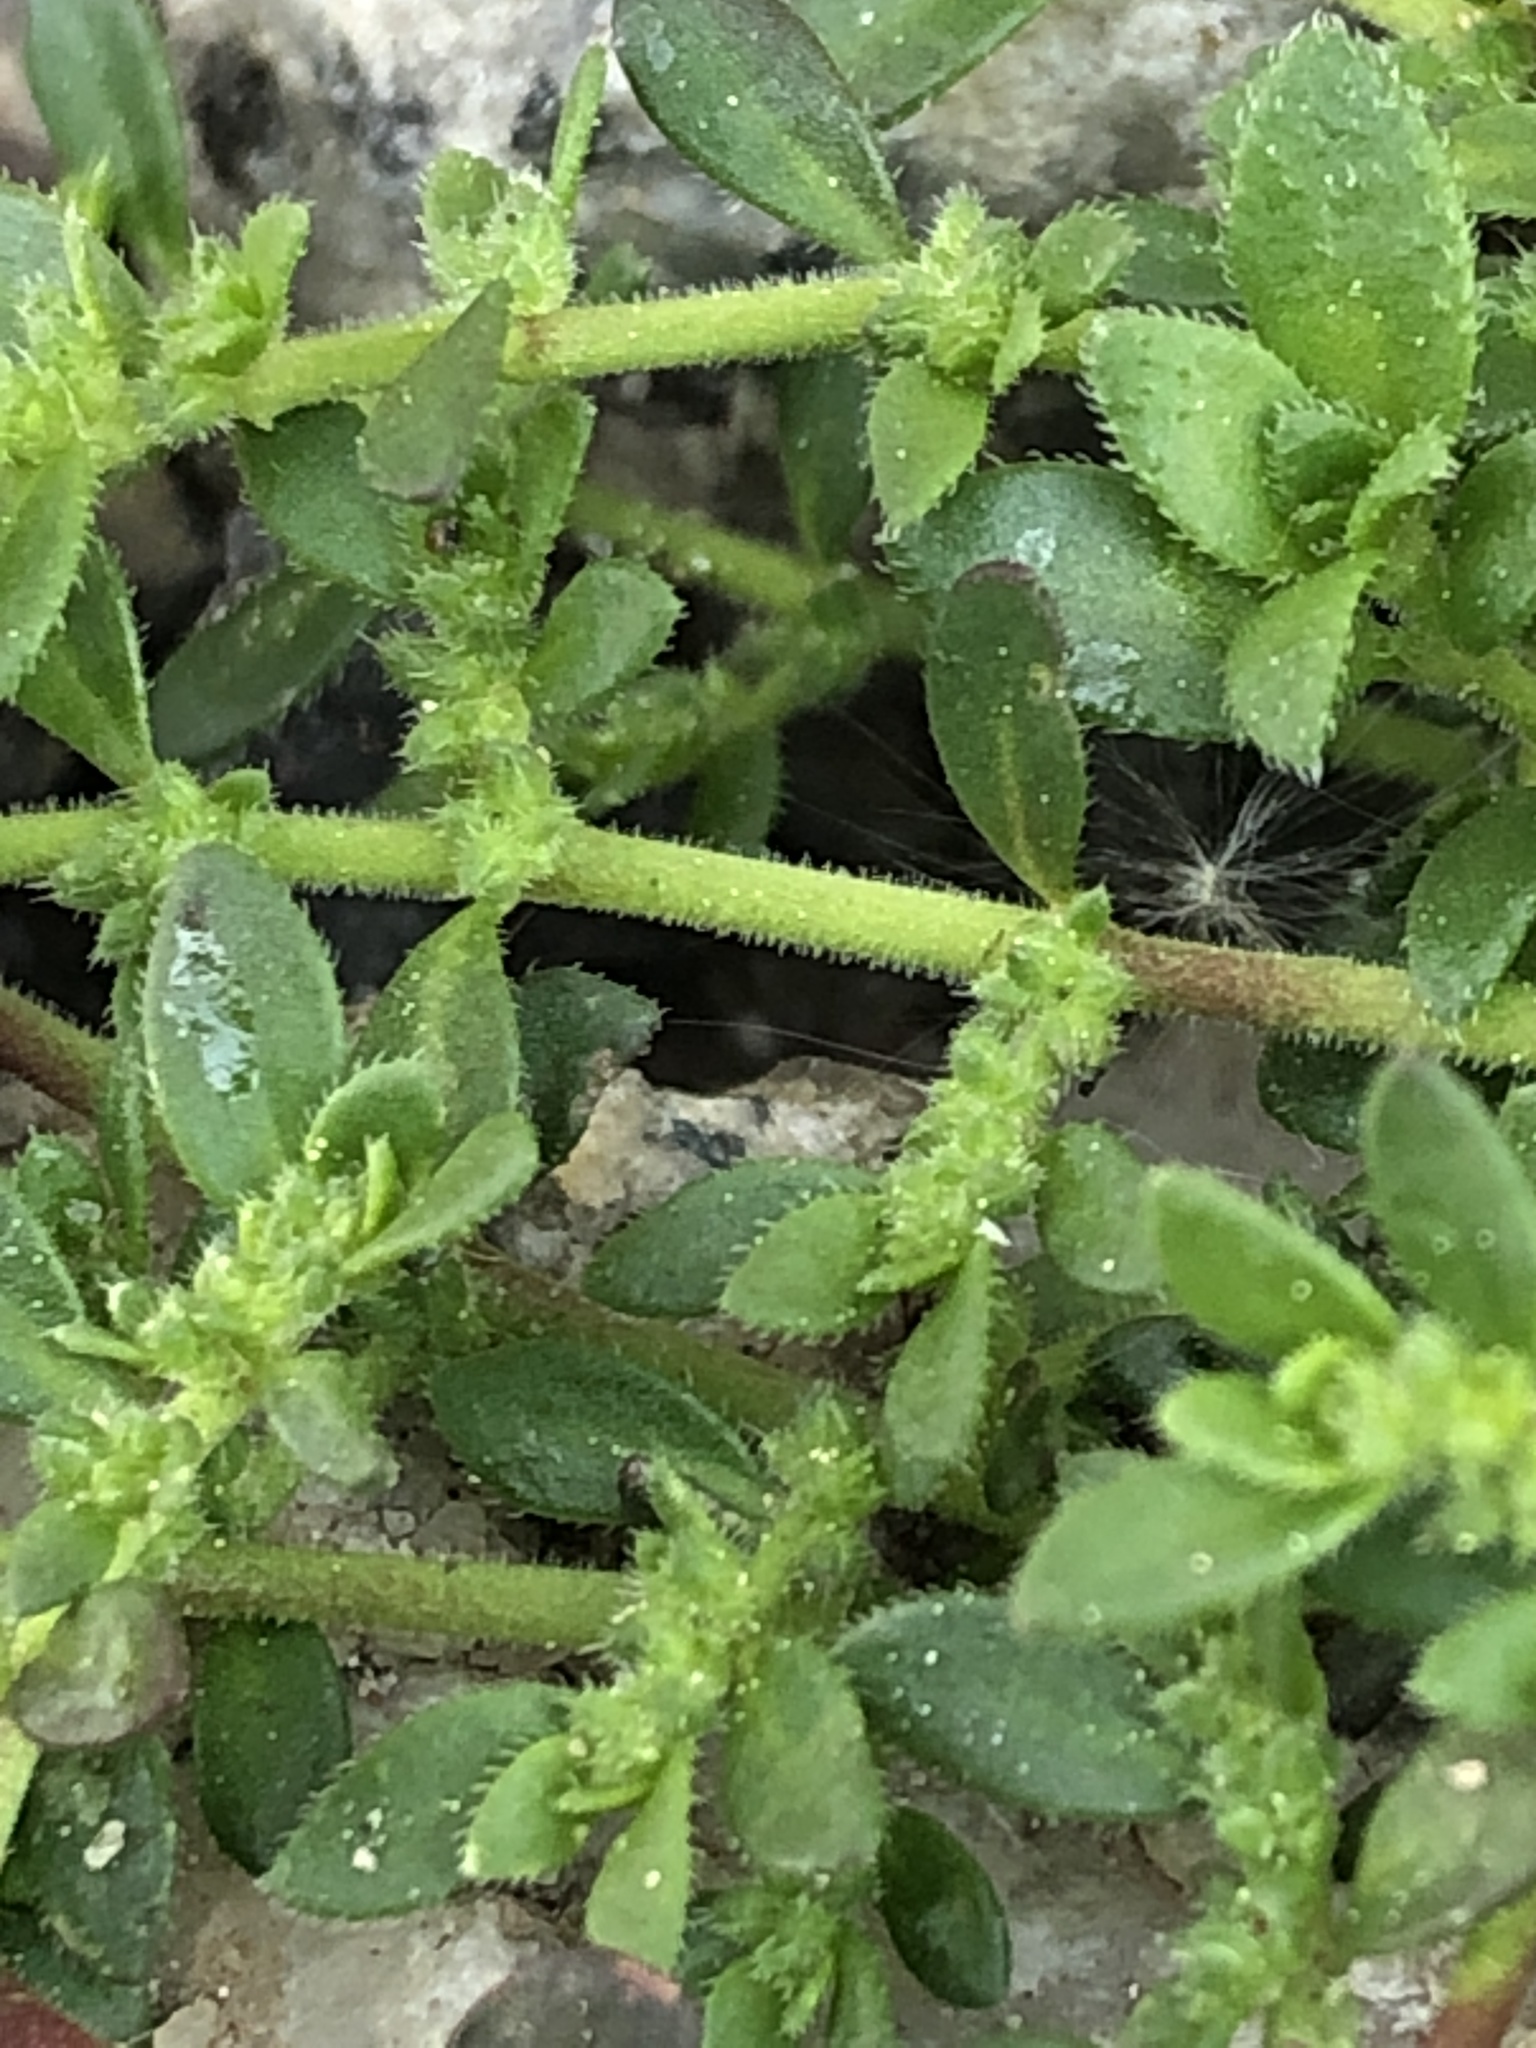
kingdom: Plantae
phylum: Tracheophyta
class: Magnoliopsida
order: Caryophyllales
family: Caryophyllaceae
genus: Herniaria
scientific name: Herniaria hirsuta
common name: Hairy rupturewort
